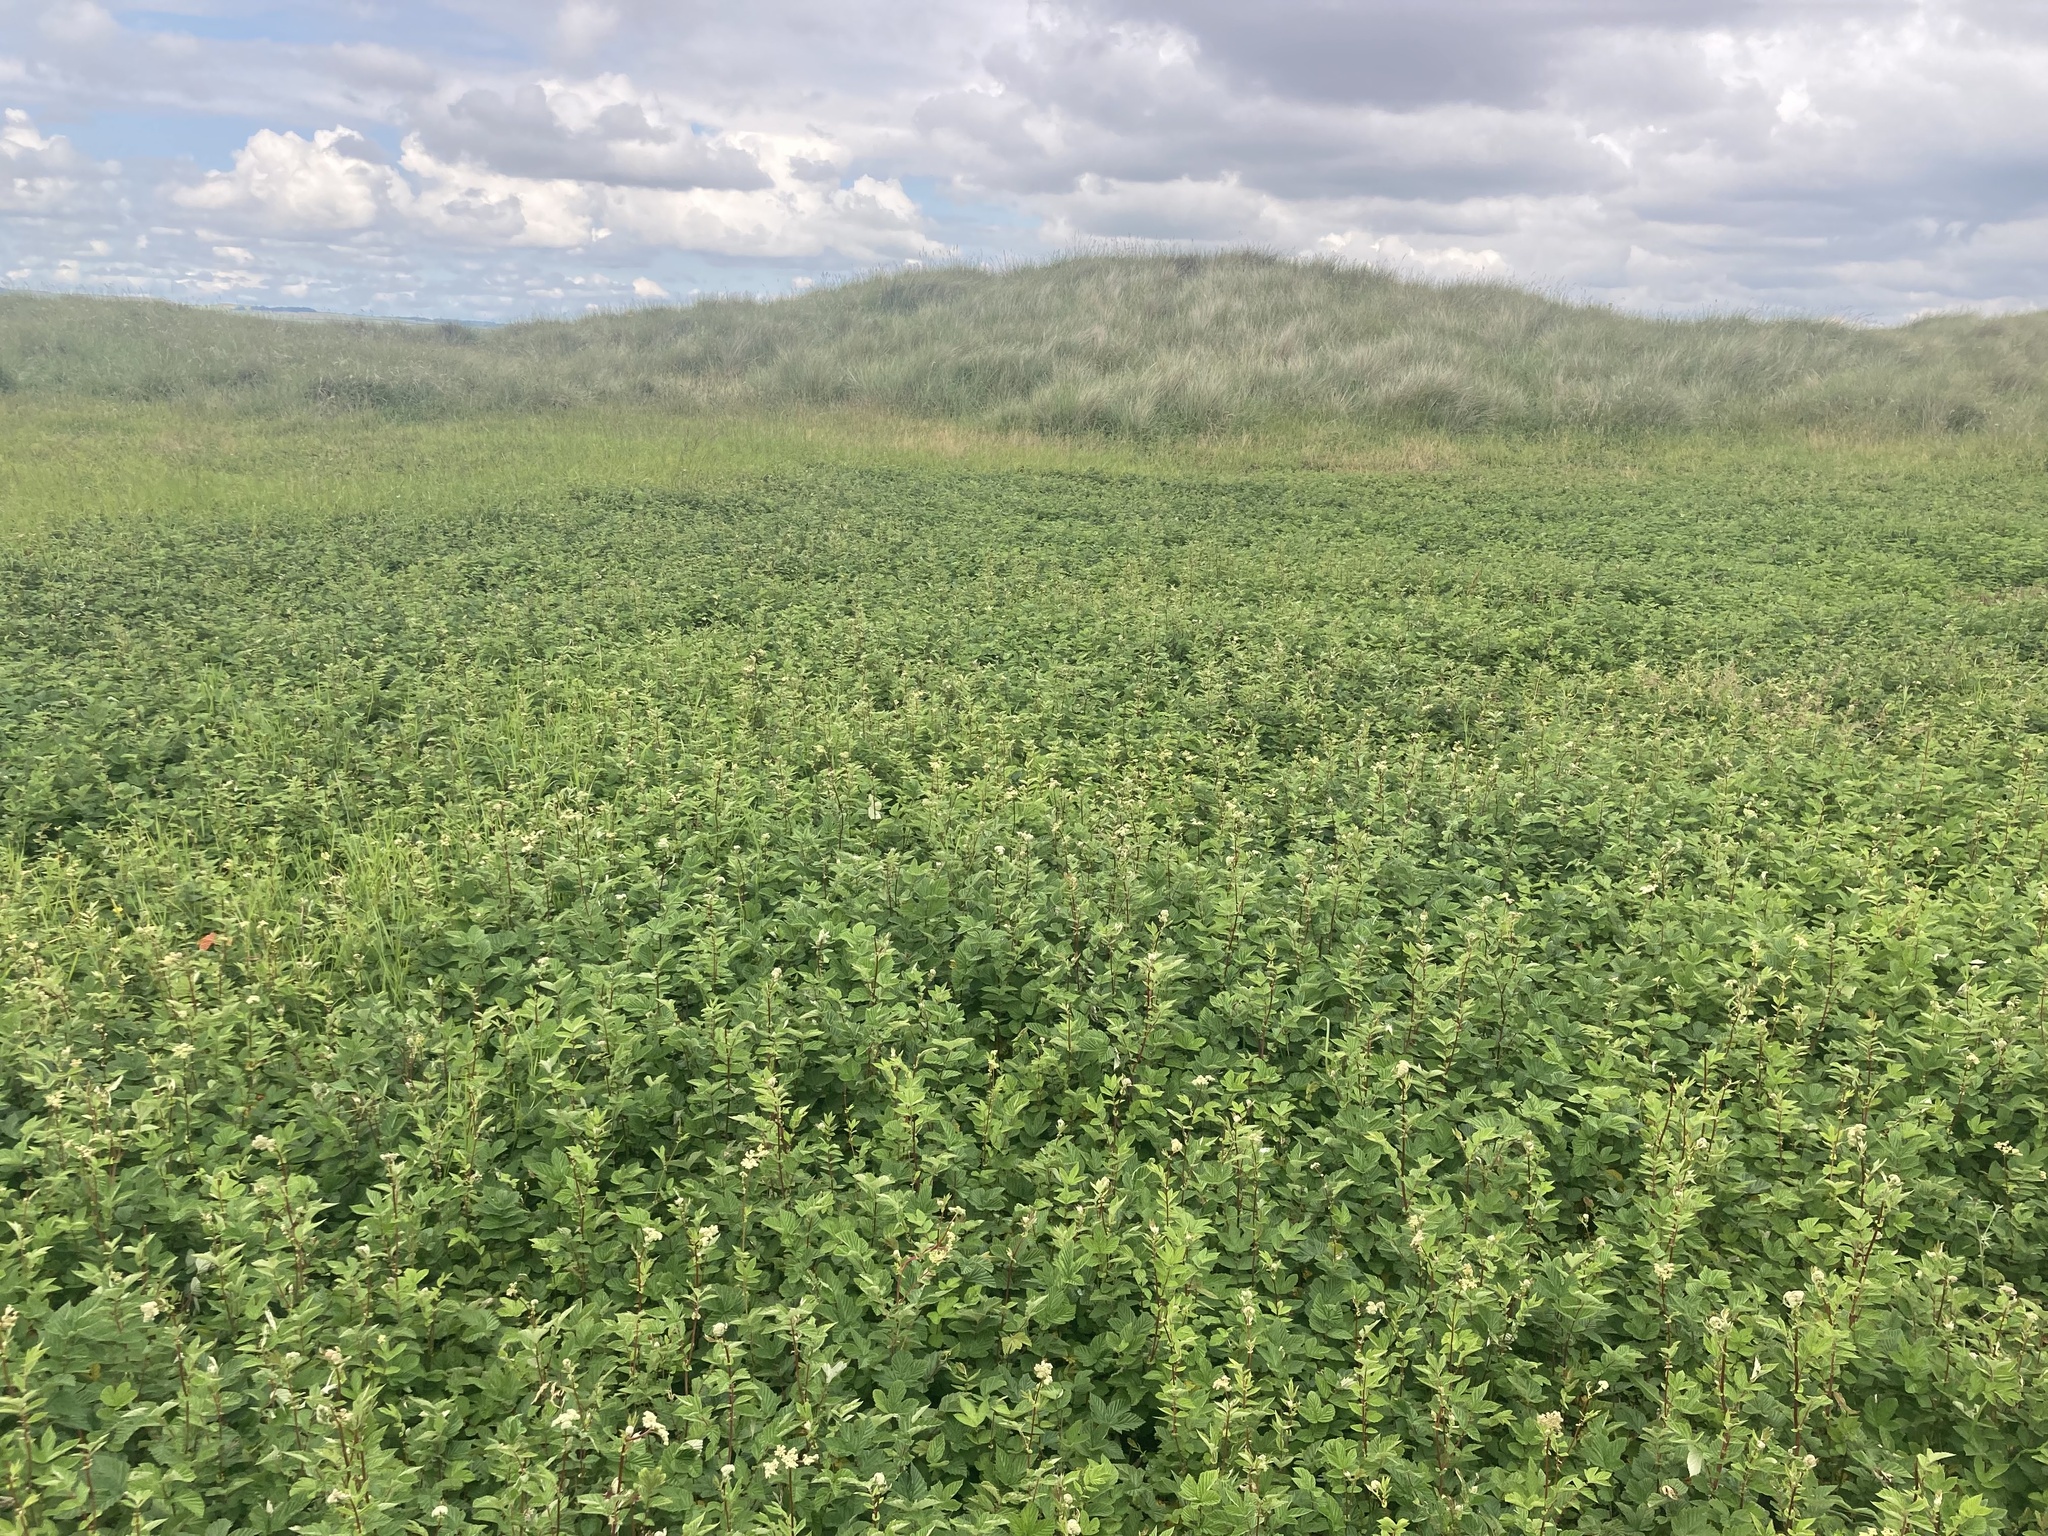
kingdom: Plantae
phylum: Tracheophyta
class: Magnoliopsida
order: Rosales
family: Rosaceae
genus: Filipendula
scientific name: Filipendula ulmaria
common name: Meadowsweet
